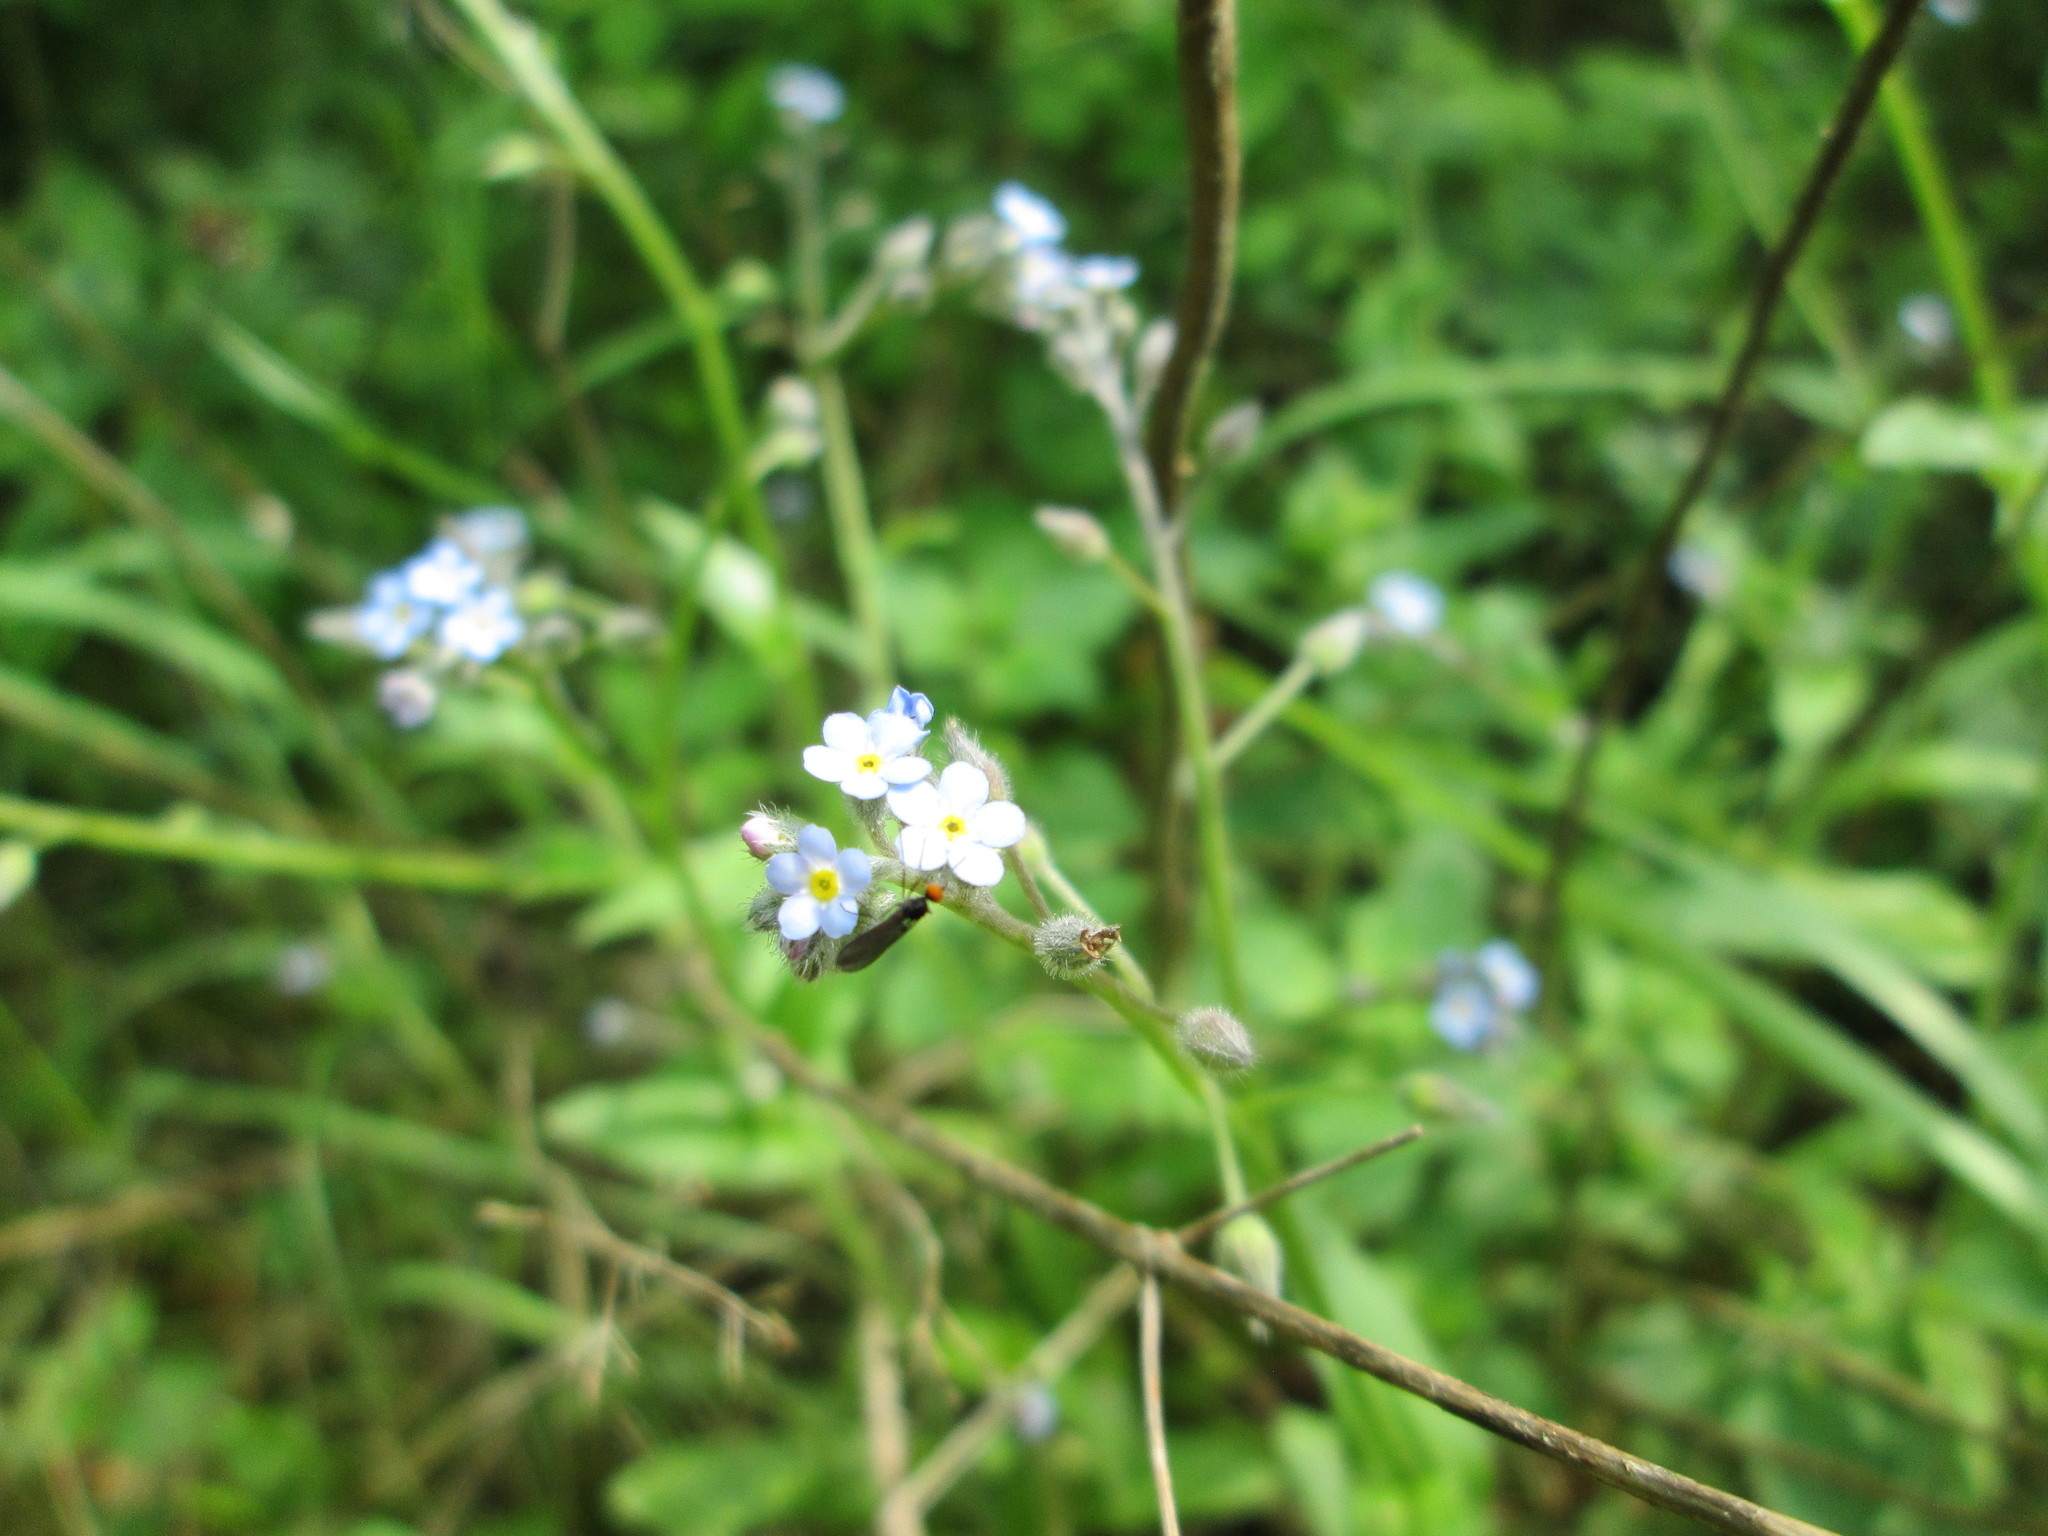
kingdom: Plantae
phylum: Tracheophyta
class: Magnoliopsida
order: Boraginales
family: Boraginaceae
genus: Myosotis
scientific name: Myosotis arvensis
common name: Field forget-me-not
